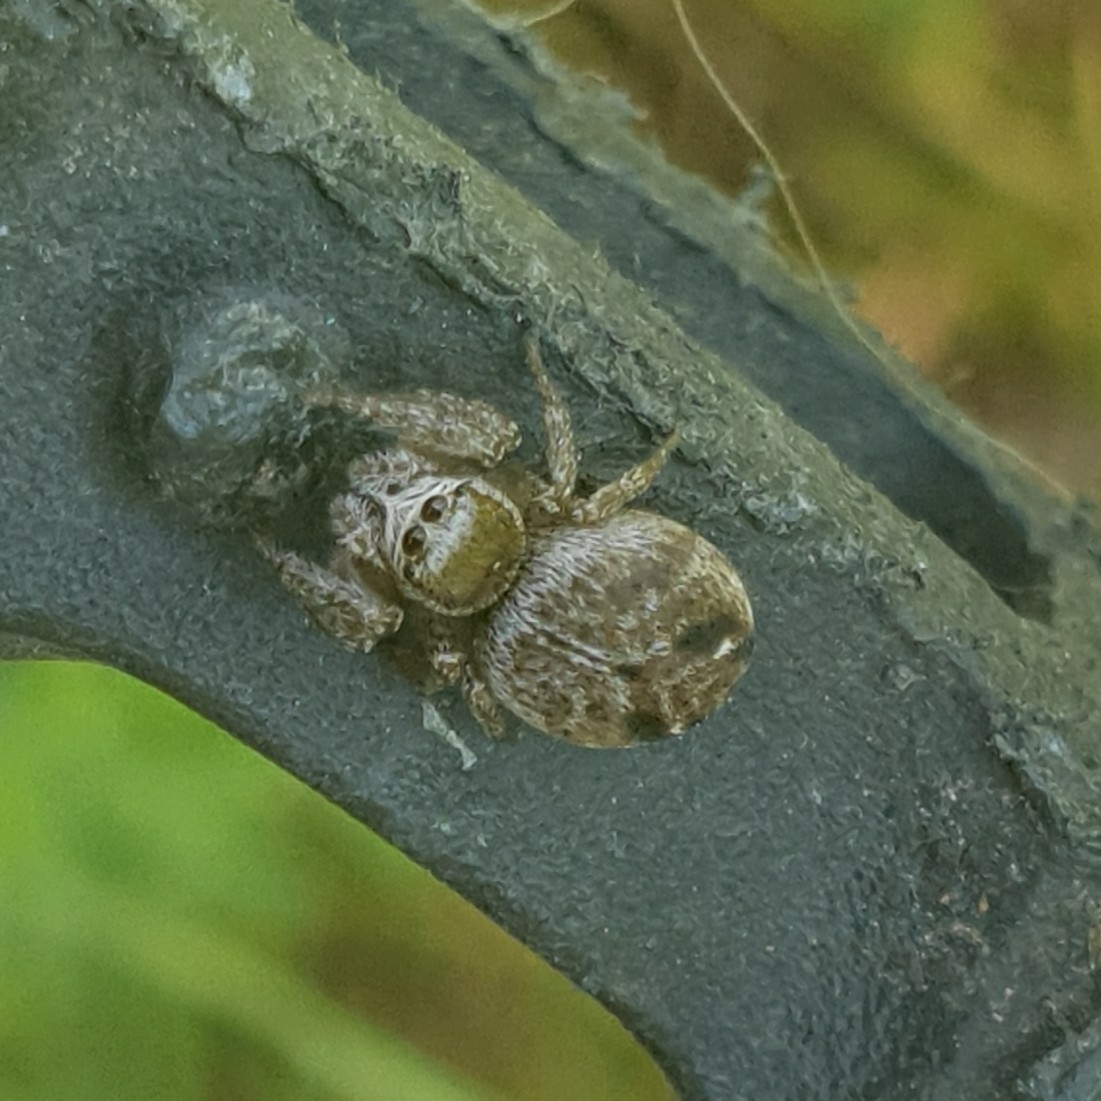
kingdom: Animalia
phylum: Arthropoda
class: Arachnida
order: Araneae
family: Salticidae
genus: Evarcha
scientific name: Evarcha arcuata
